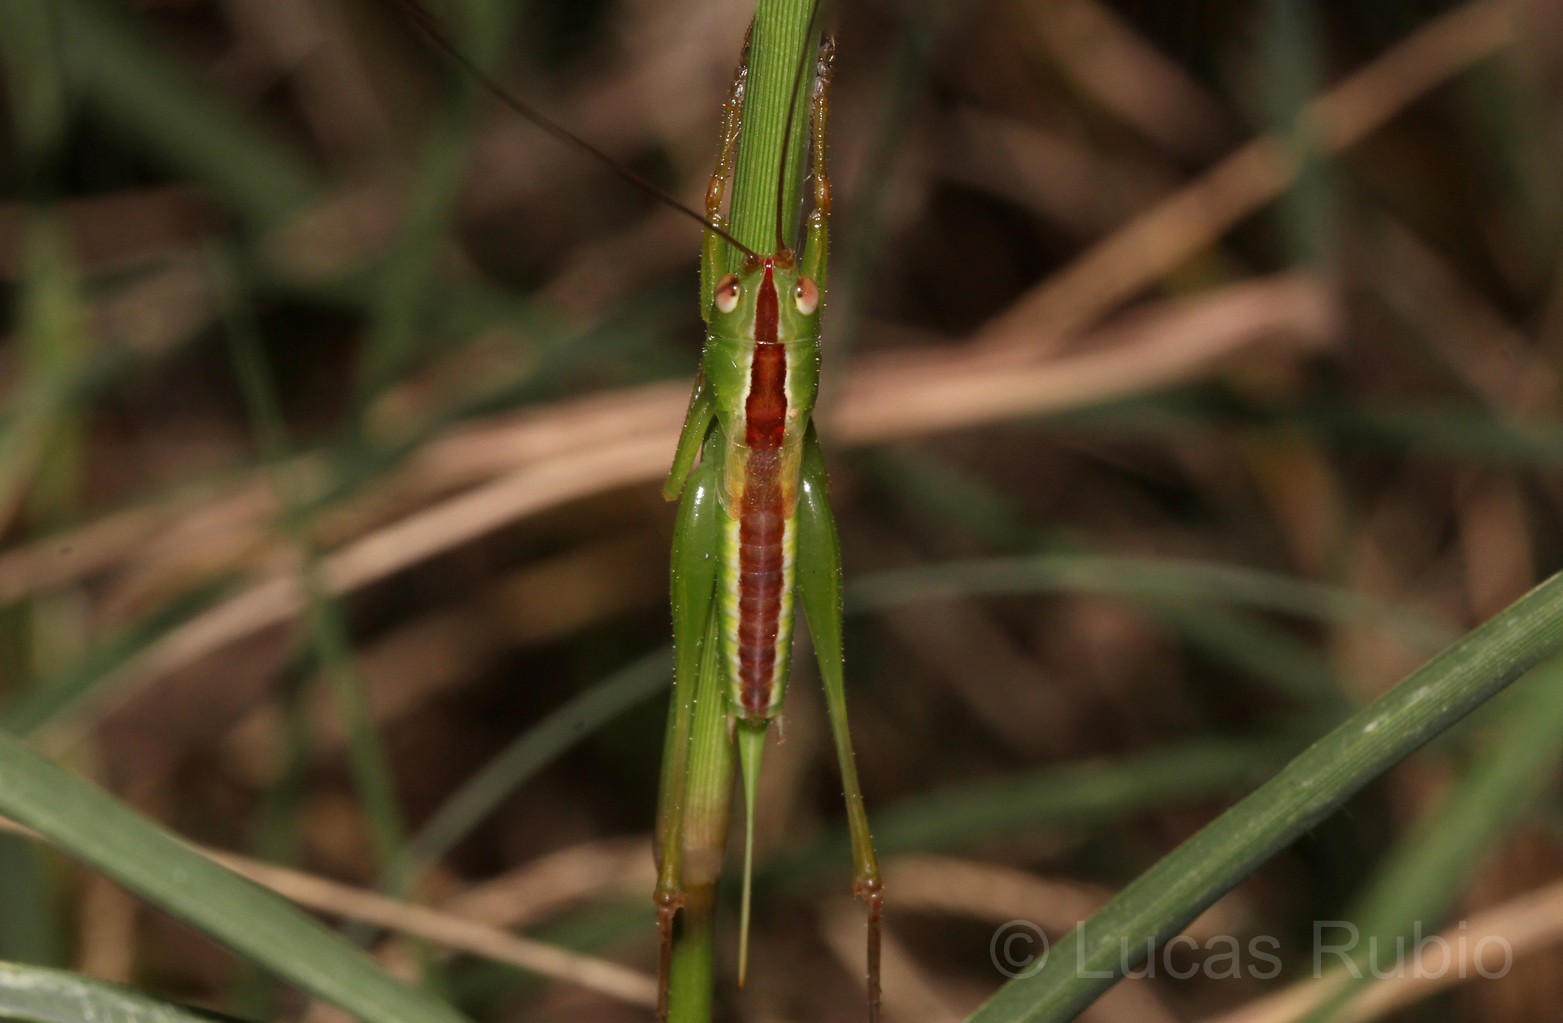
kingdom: Animalia
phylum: Arthropoda
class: Insecta
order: Orthoptera
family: Tettigoniidae
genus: Conocephalus
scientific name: Conocephalus
